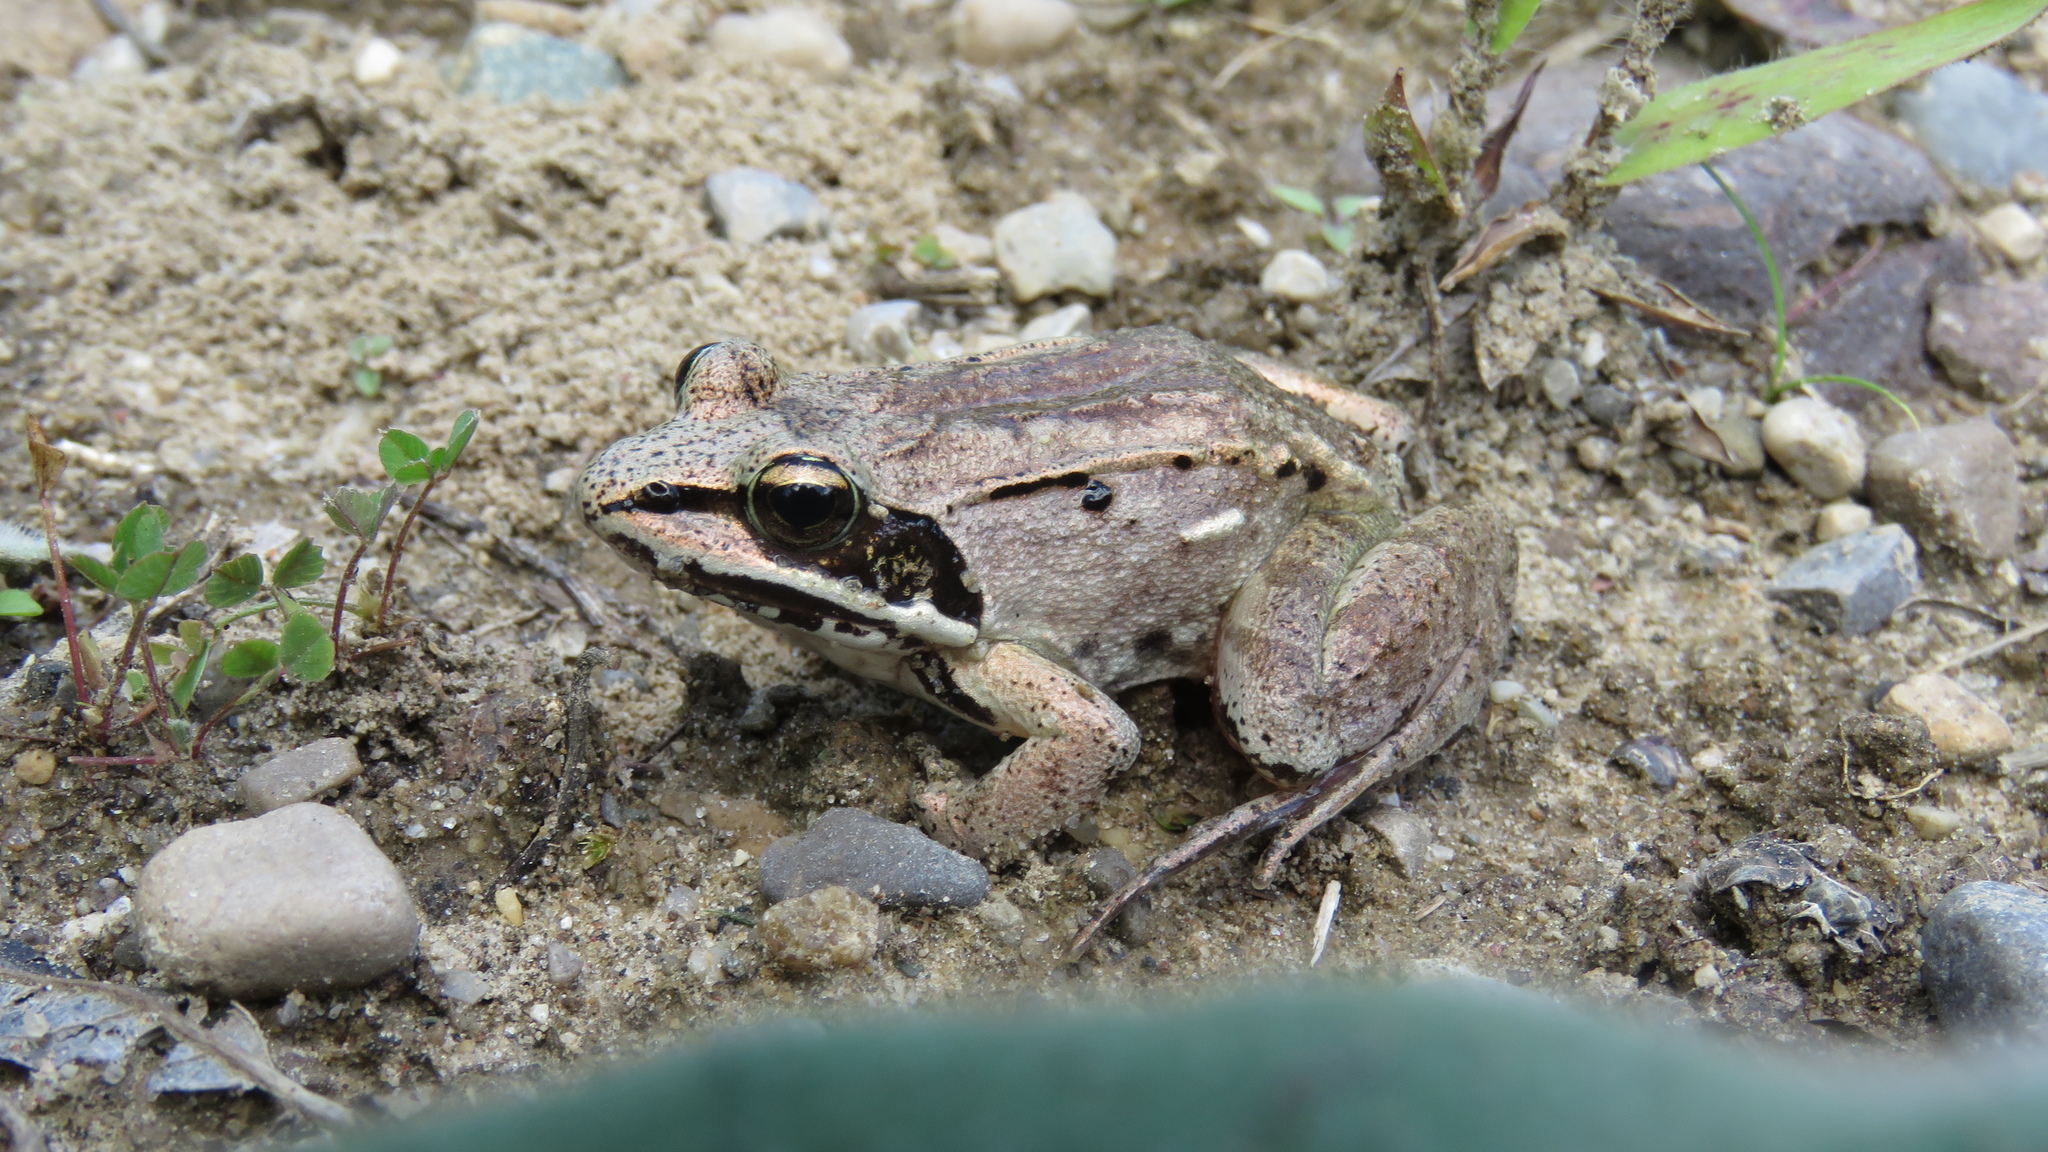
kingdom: Animalia
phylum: Chordata
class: Amphibia
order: Anura
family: Ranidae
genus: Lithobates
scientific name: Lithobates sylvaticus
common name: Wood frog
